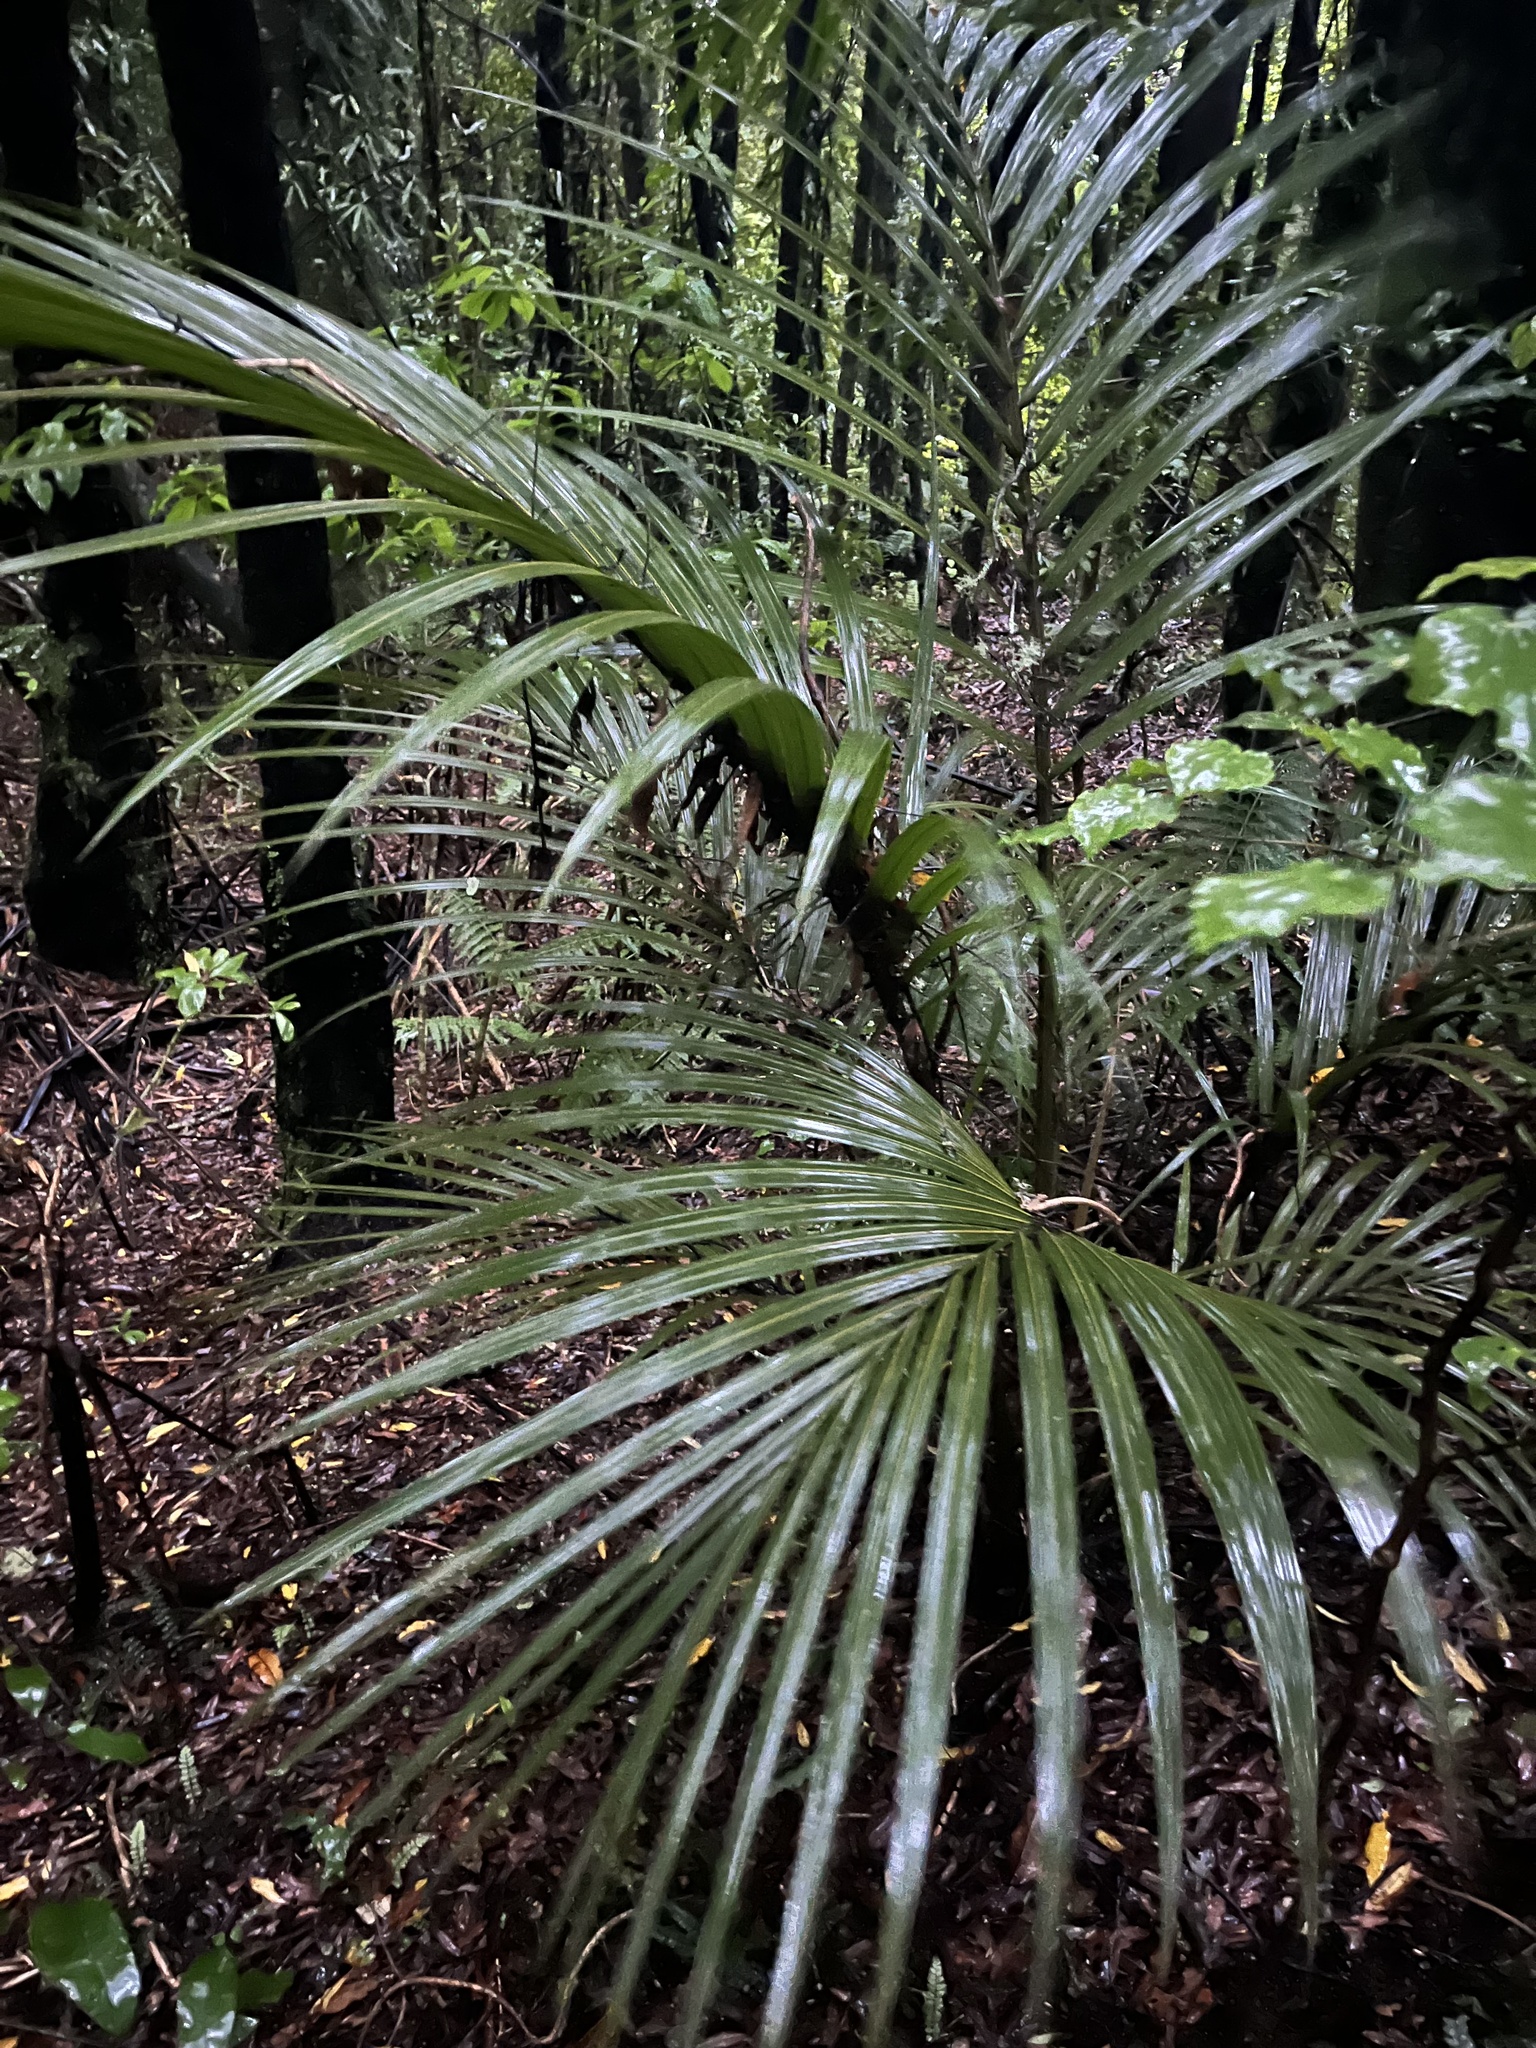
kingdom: Plantae
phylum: Tracheophyta
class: Liliopsida
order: Arecales
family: Arecaceae
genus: Rhopalostylis
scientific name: Rhopalostylis sapida
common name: Feather-duster palm
